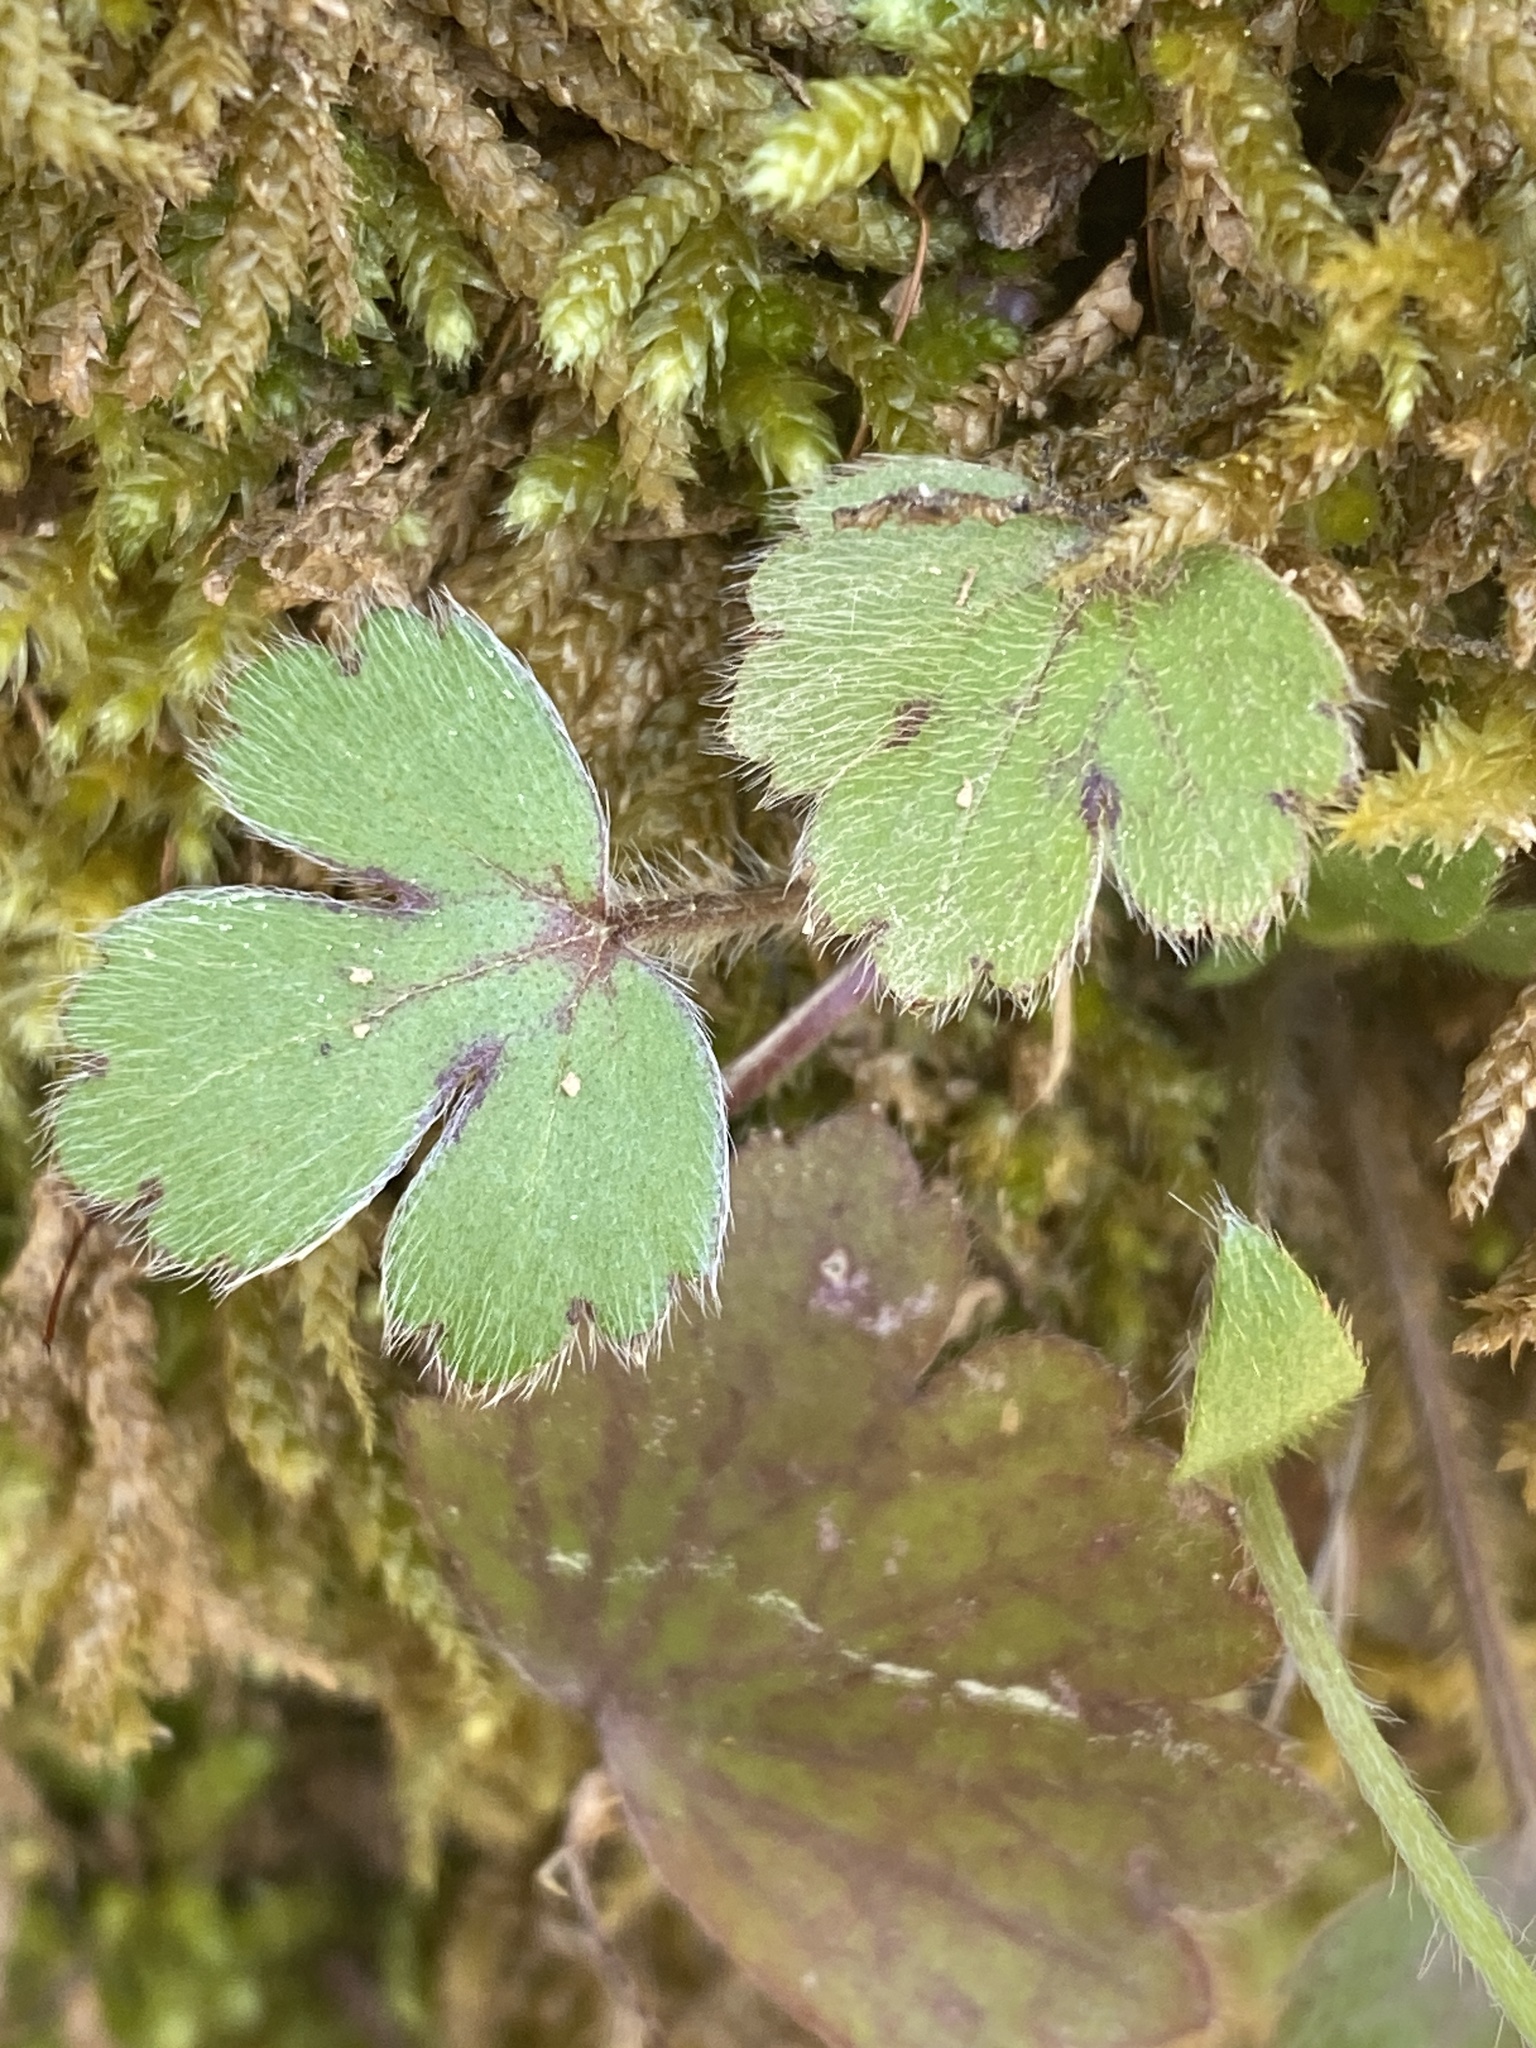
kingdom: Plantae
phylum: Tracheophyta
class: Magnoliopsida
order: Ranunculales
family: Ranunculaceae
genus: Ranunculus
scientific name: Ranunculus hispidus
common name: Bristly buttercup
